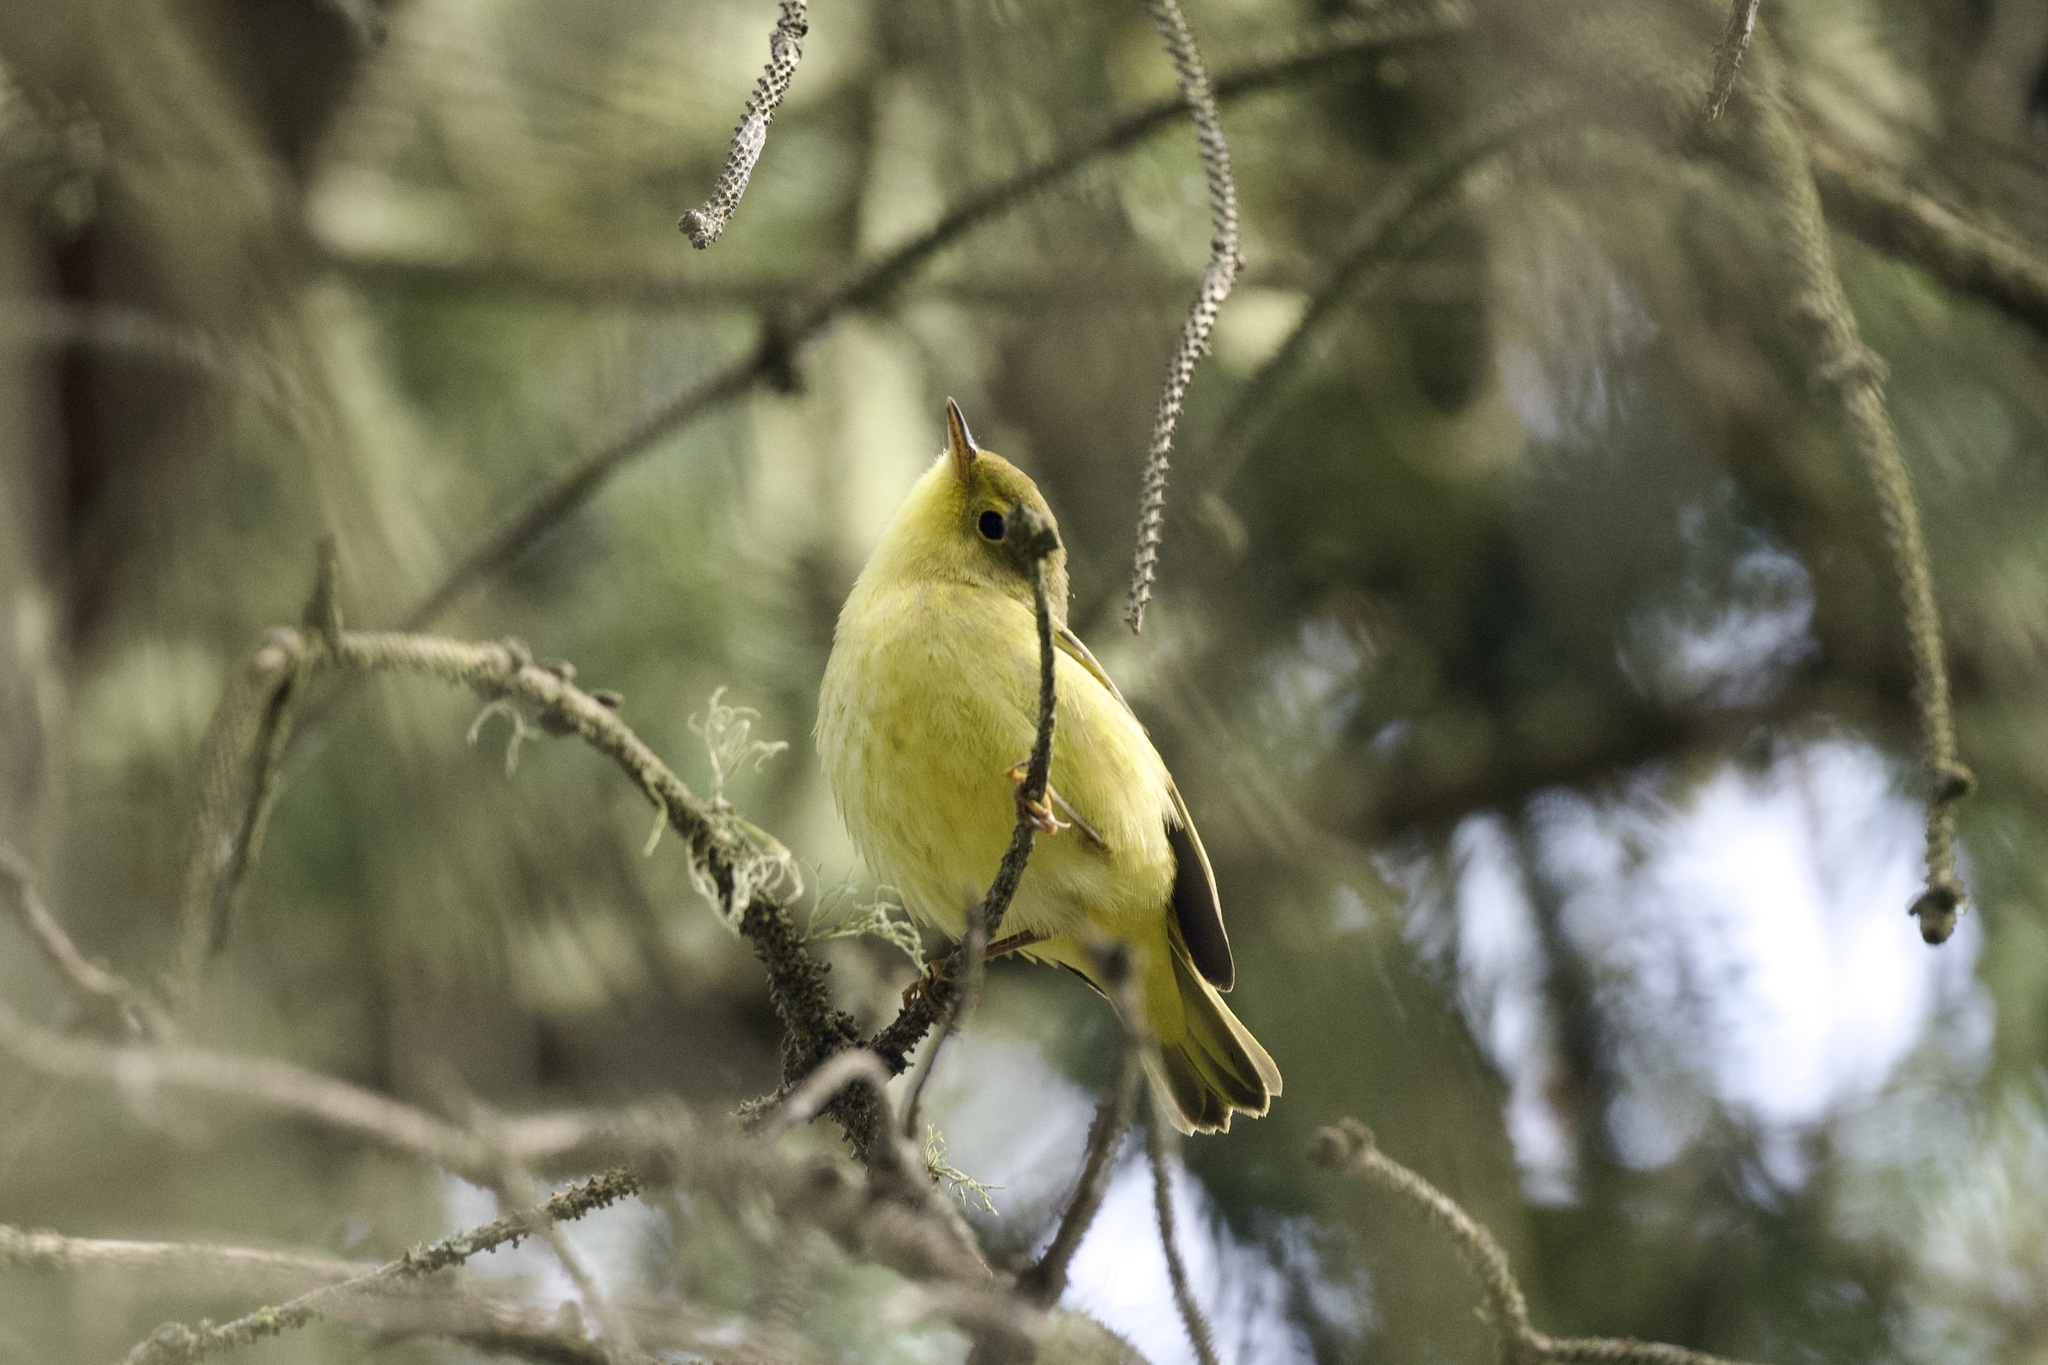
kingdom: Animalia
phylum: Chordata
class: Aves
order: Passeriformes
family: Parulidae
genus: Setophaga
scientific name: Setophaga petechia
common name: Yellow warbler
